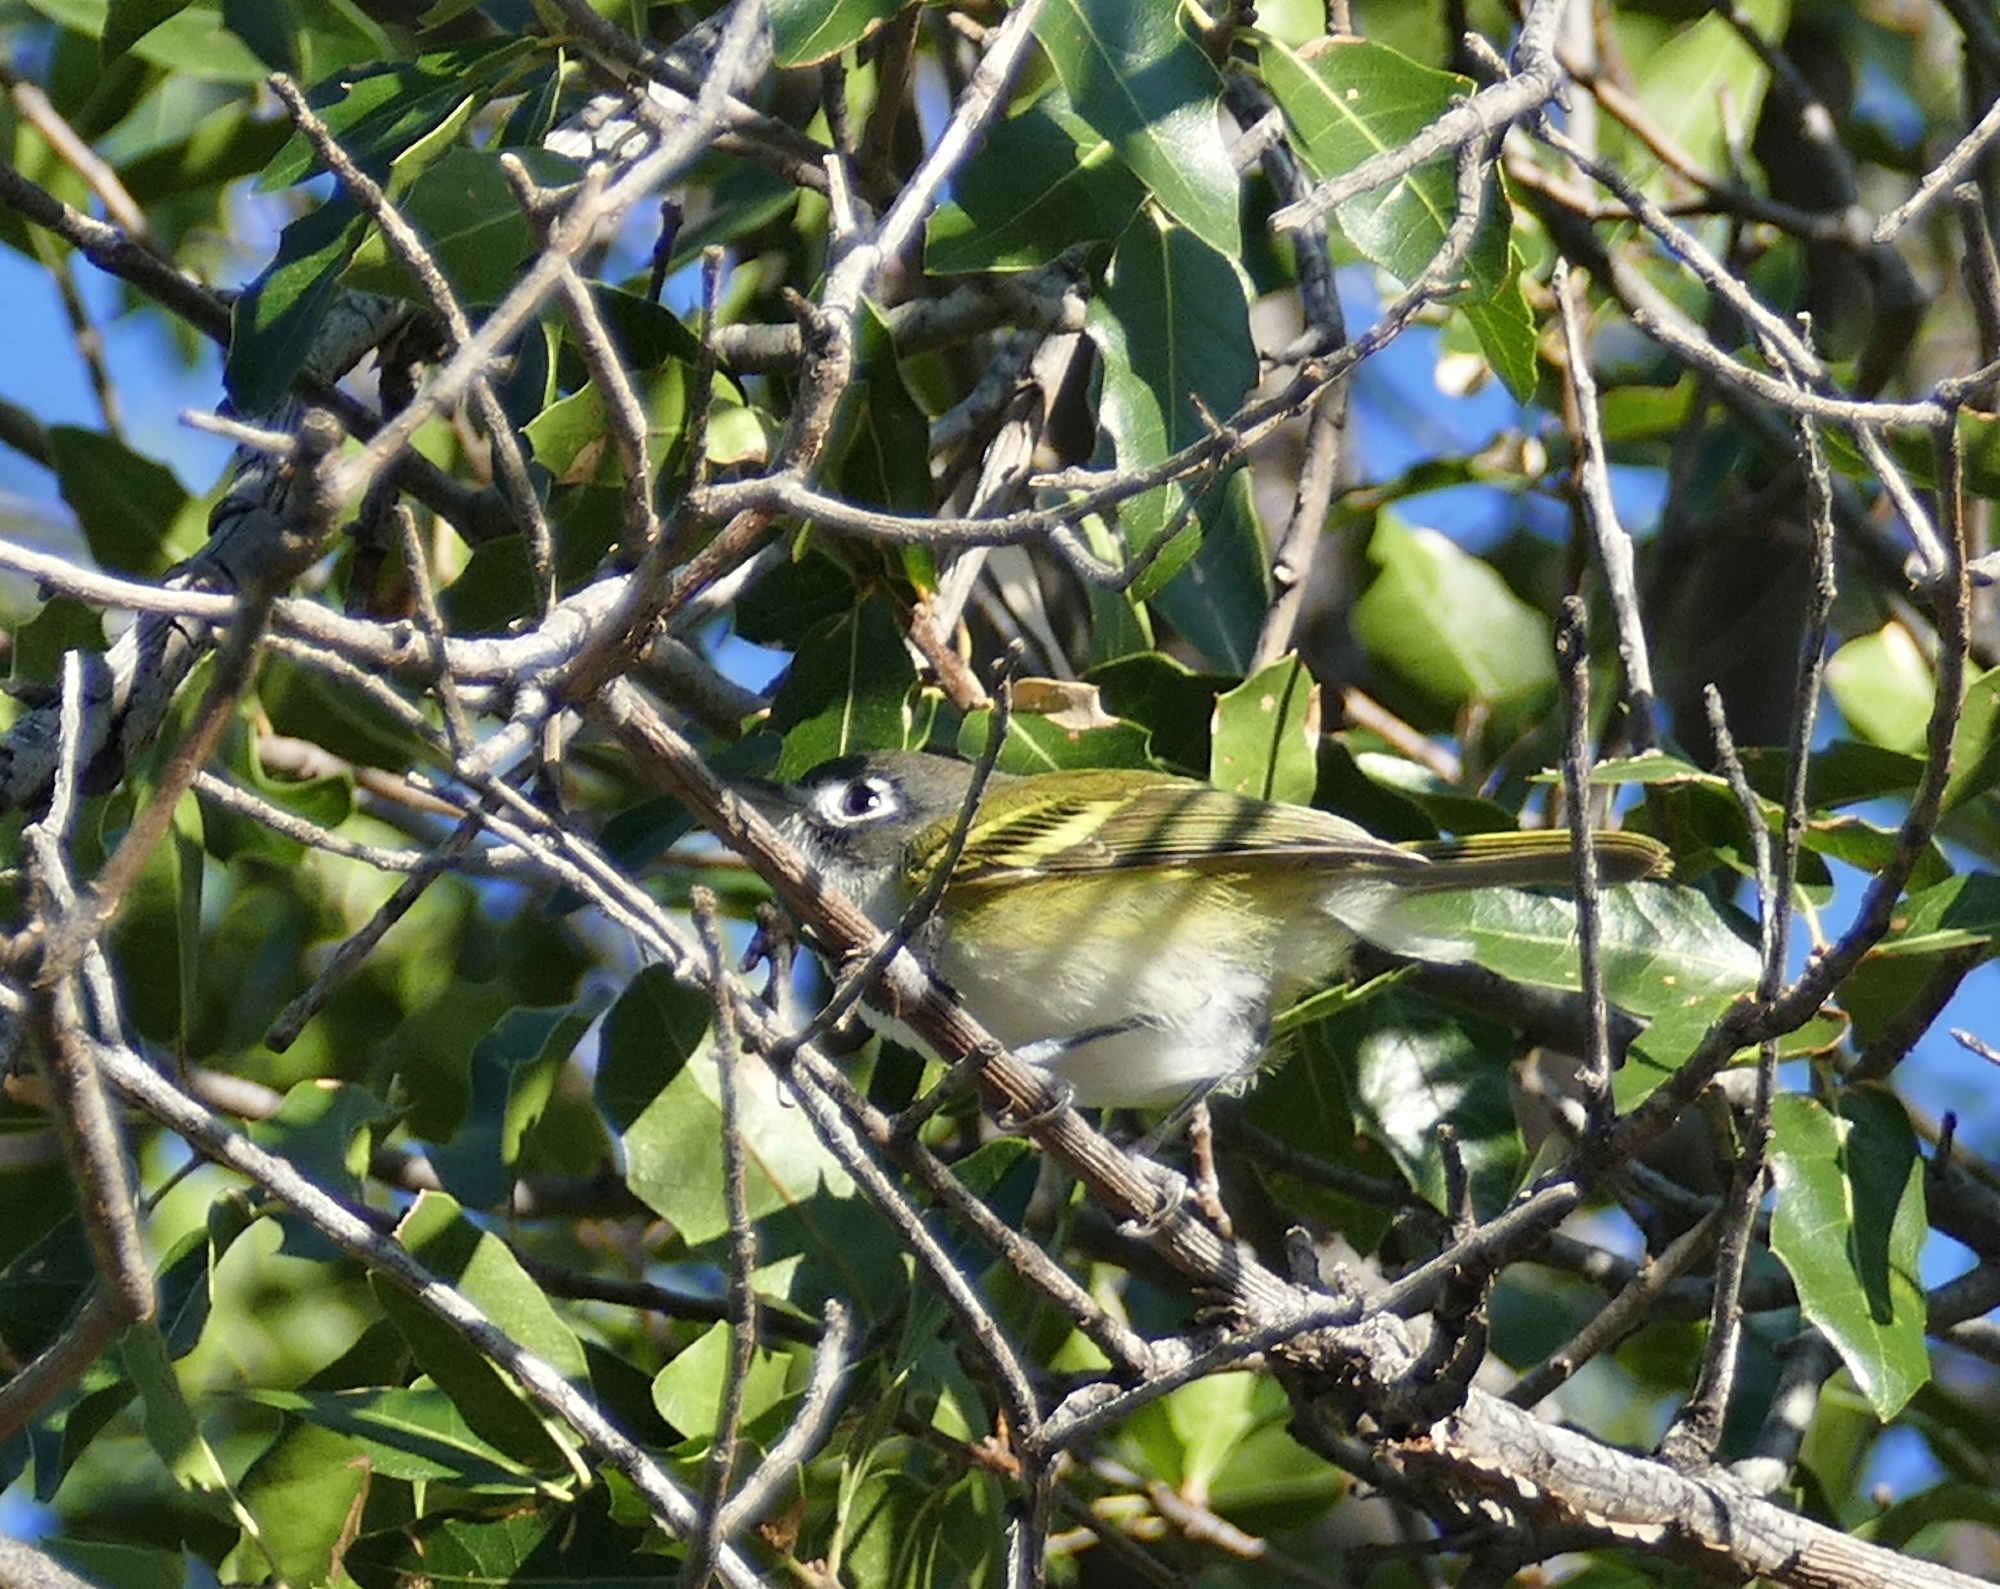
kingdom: Animalia
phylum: Chordata
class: Aves
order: Passeriformes
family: Vireonidae
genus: Vireo
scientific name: Vireo atricapilla
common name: Black-capped vireo
